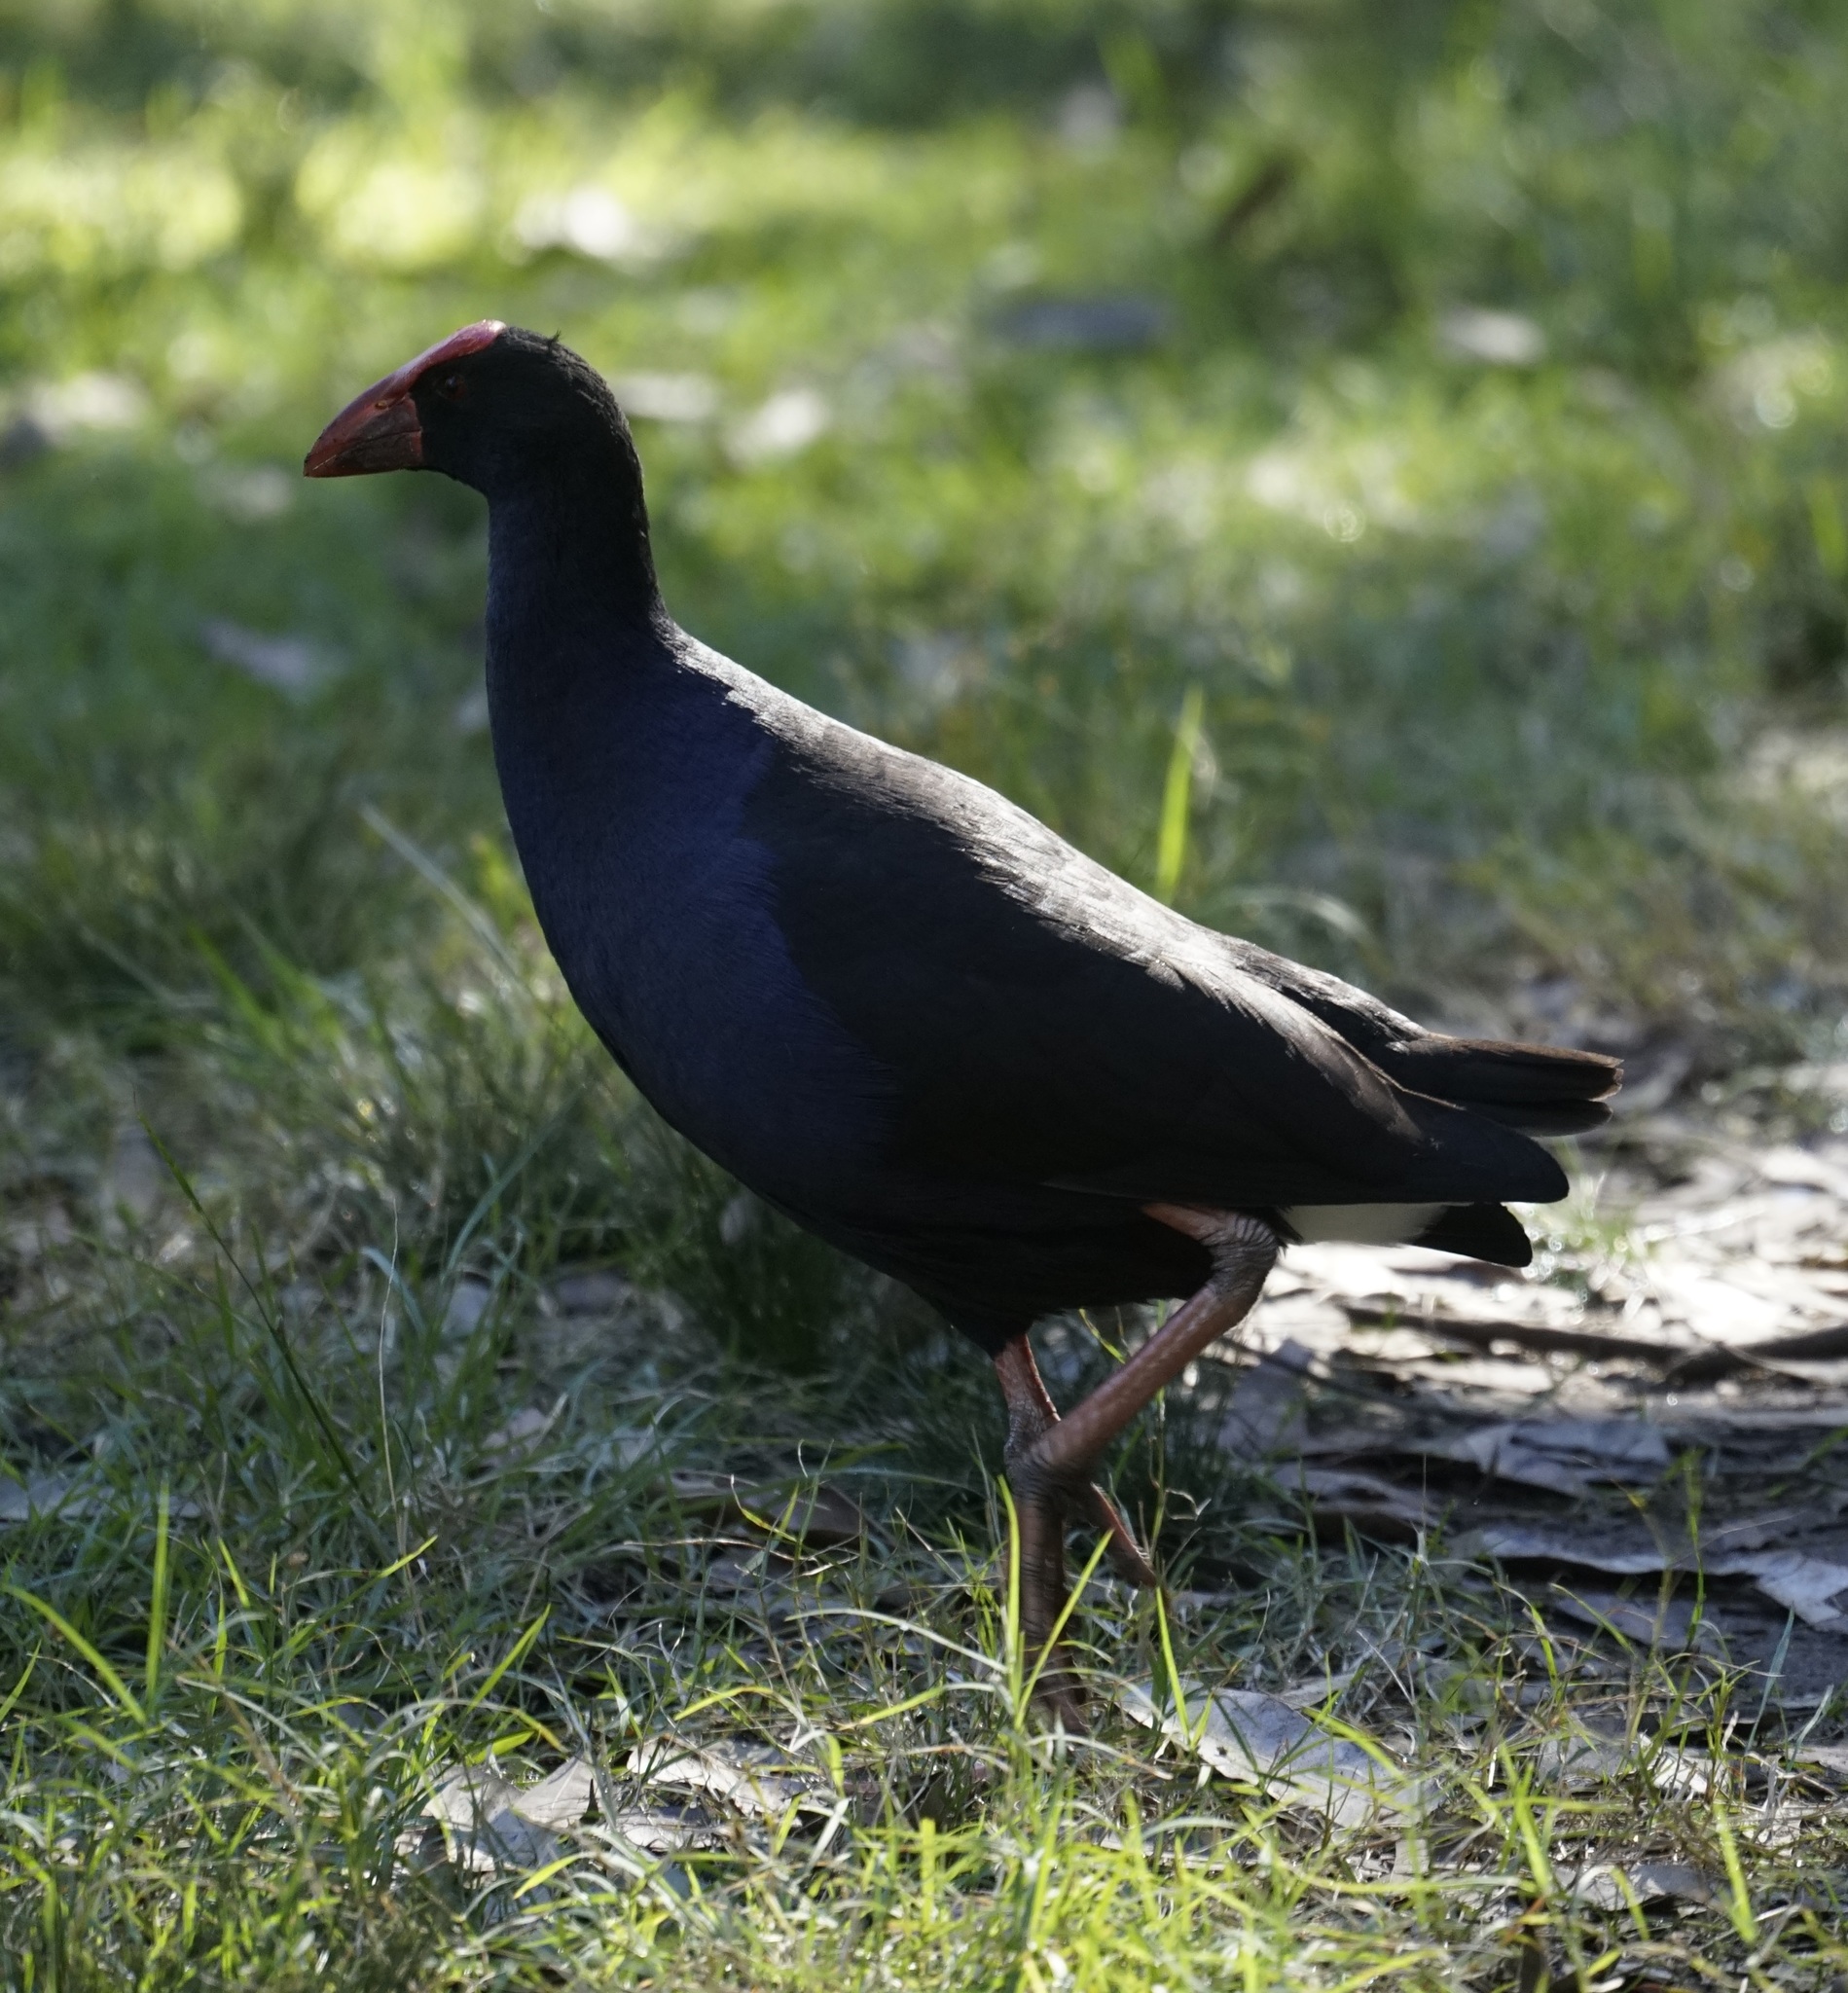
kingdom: Animalia
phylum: Chordata
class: Aves
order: Gruiformes
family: Rallidae
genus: Porphyrio
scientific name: Porphyrio melanotus
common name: Australasian swamphen
